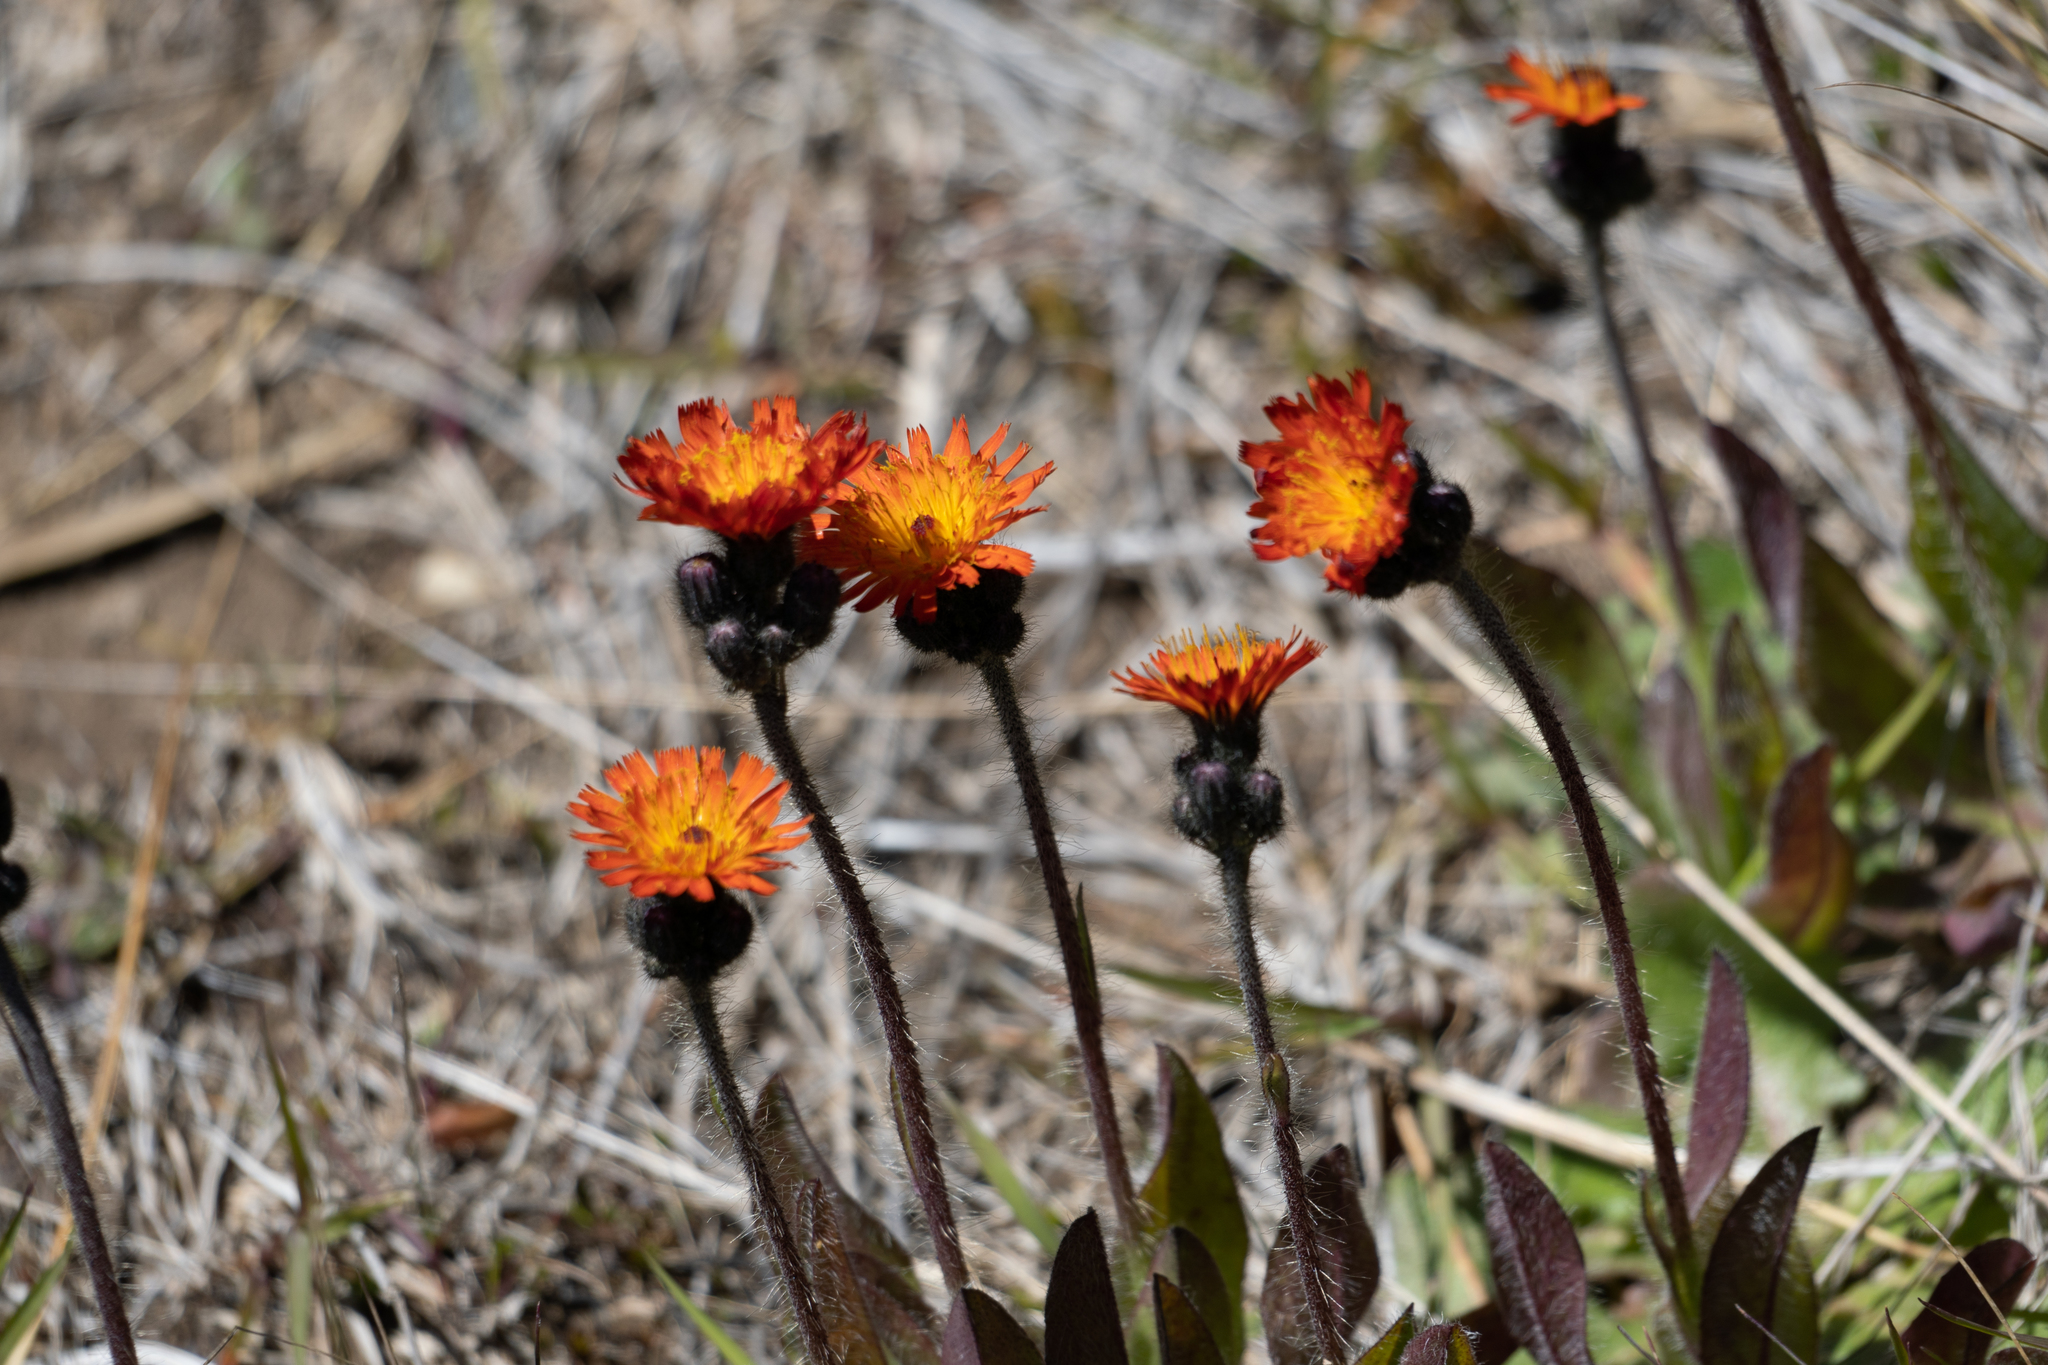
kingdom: Plantae
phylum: Tracheophyta
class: Magnoliopsida
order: Asterales
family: Asteraceae
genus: Pilosella
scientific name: Pilosella aurantiaca
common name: Fox-and-cubs
